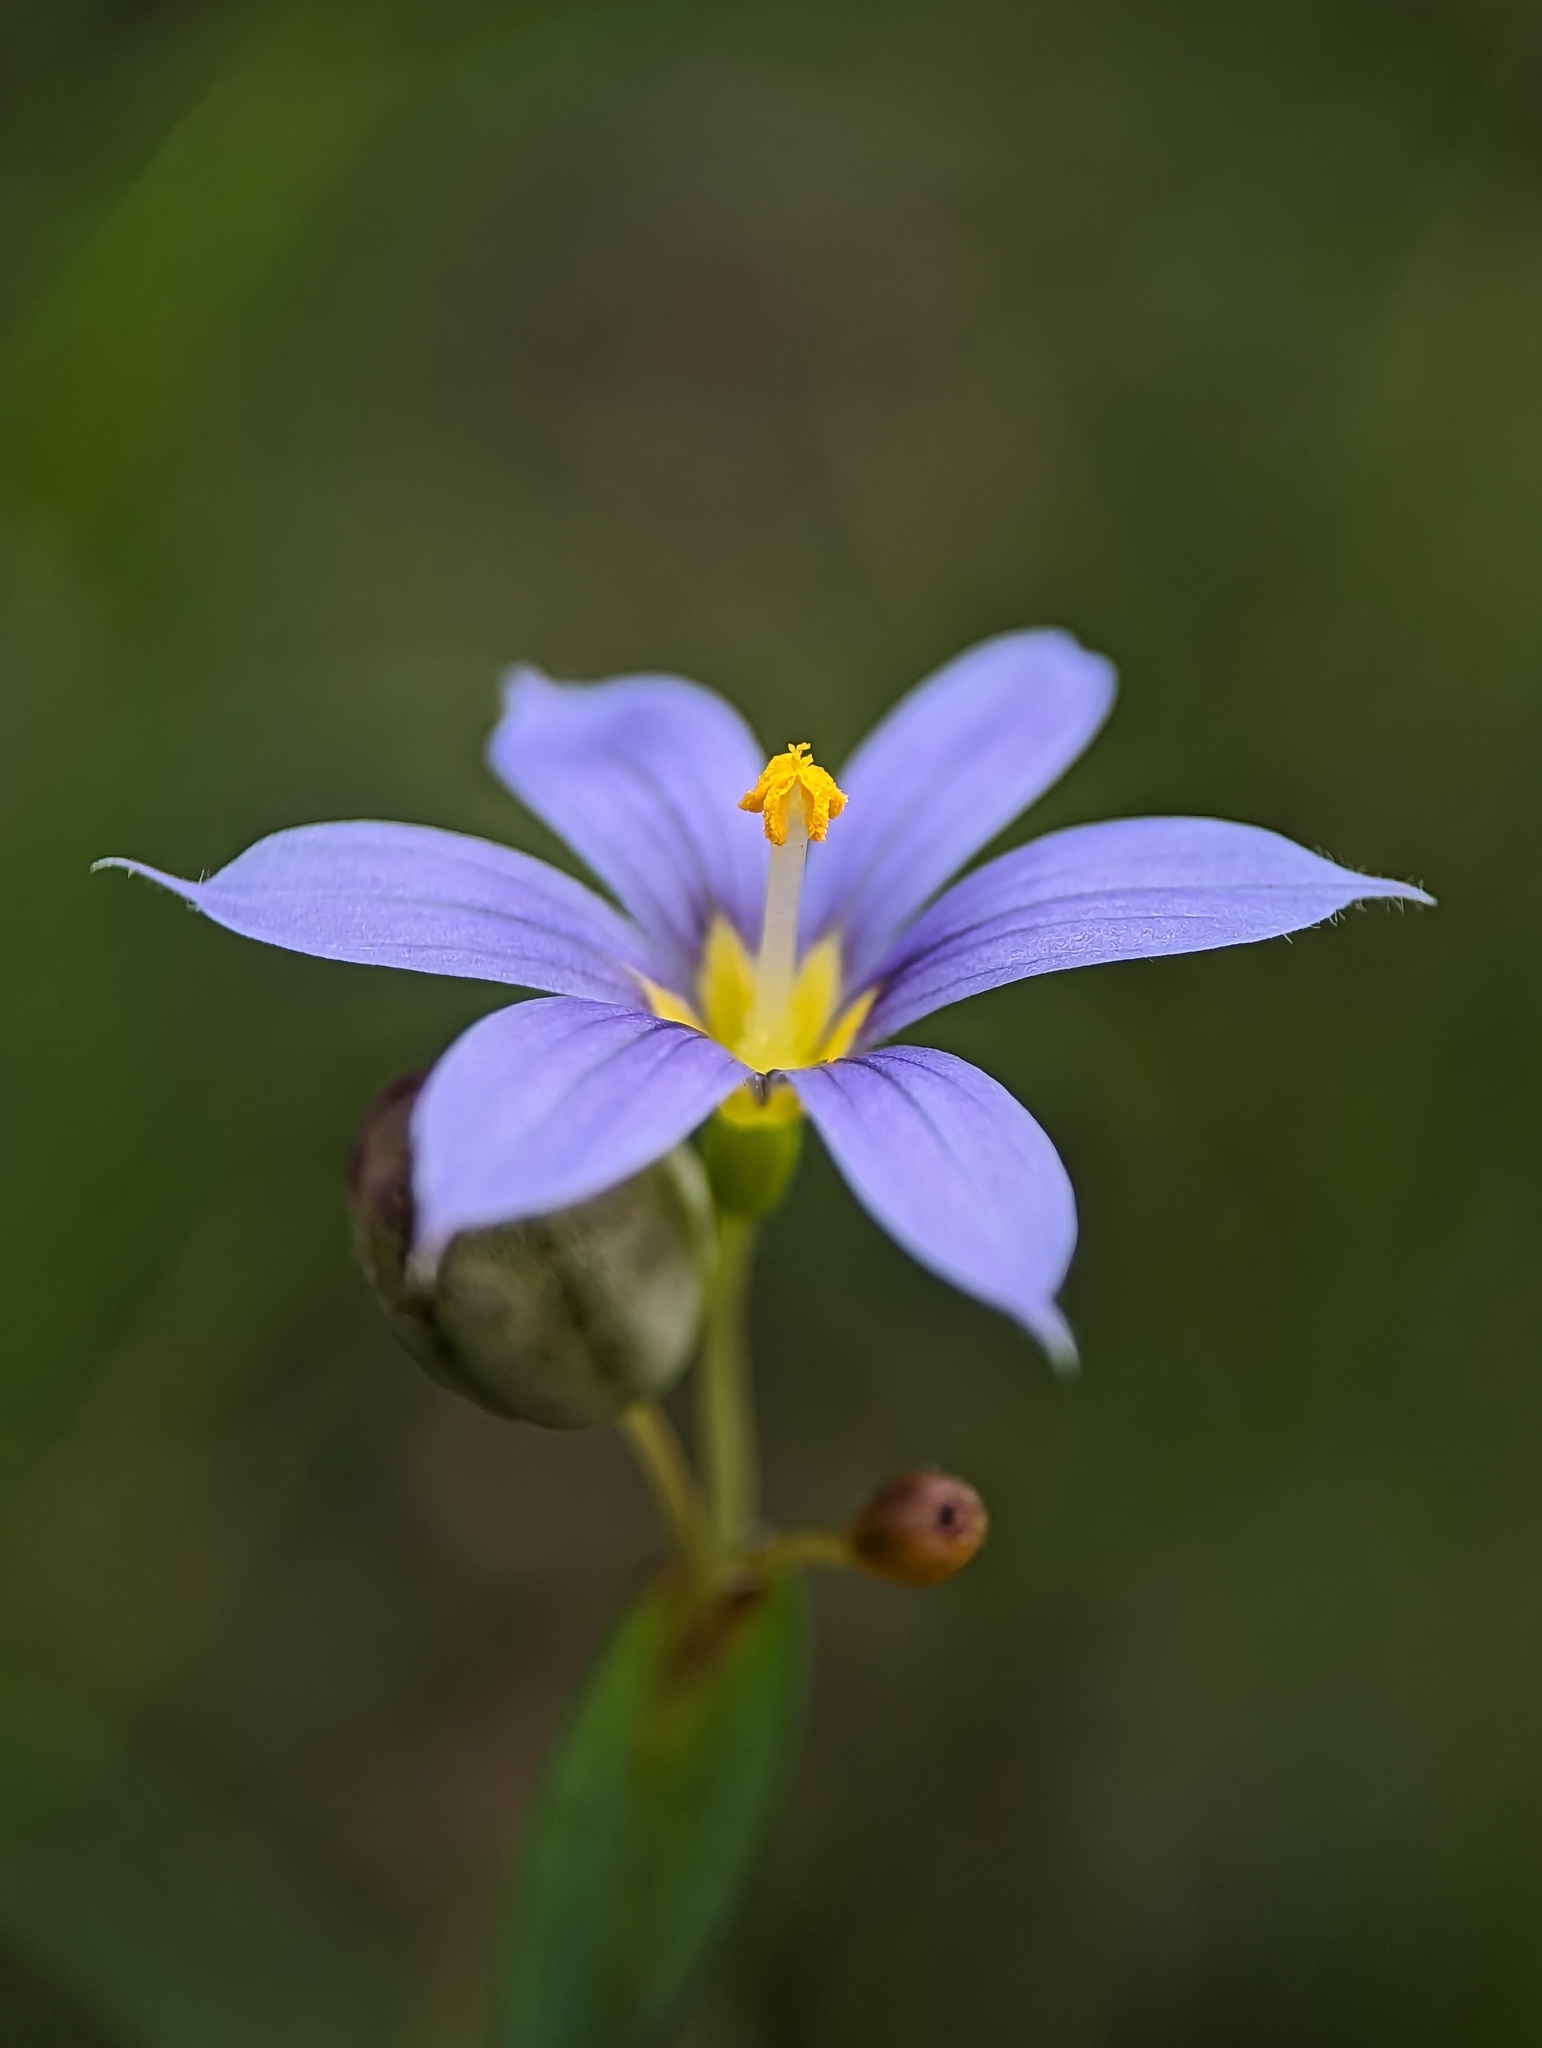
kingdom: Plantae
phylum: Tracheophyta
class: Liliopsida
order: Asparagales
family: Iridaceae
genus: Sisyrinchium
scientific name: Sisyrinchium demissum
